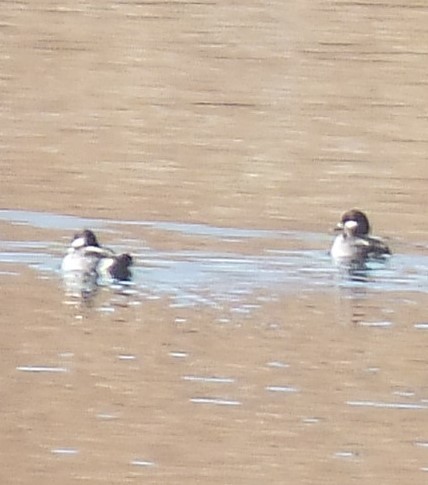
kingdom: Animalia
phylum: Chordata
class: Aves
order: Anseriformes
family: Anatidae
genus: Bucephala
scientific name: Bucephala albeola
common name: Bufflehead
